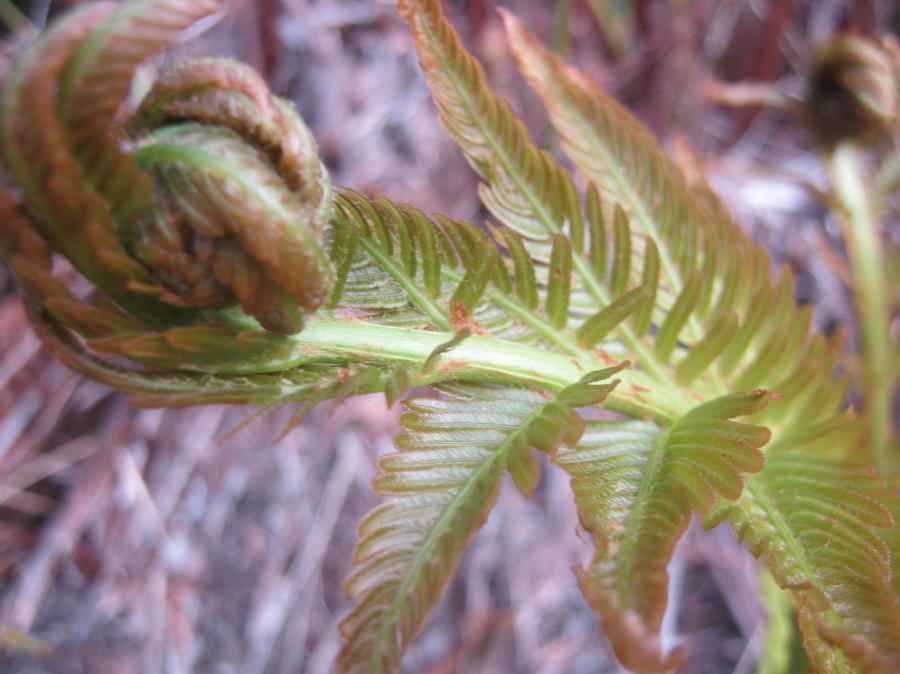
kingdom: Plantae
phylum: Tracheophyta
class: Polypodiopsida
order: Osmundales
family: Osmundaceae
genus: Todea
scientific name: Todea barbara
